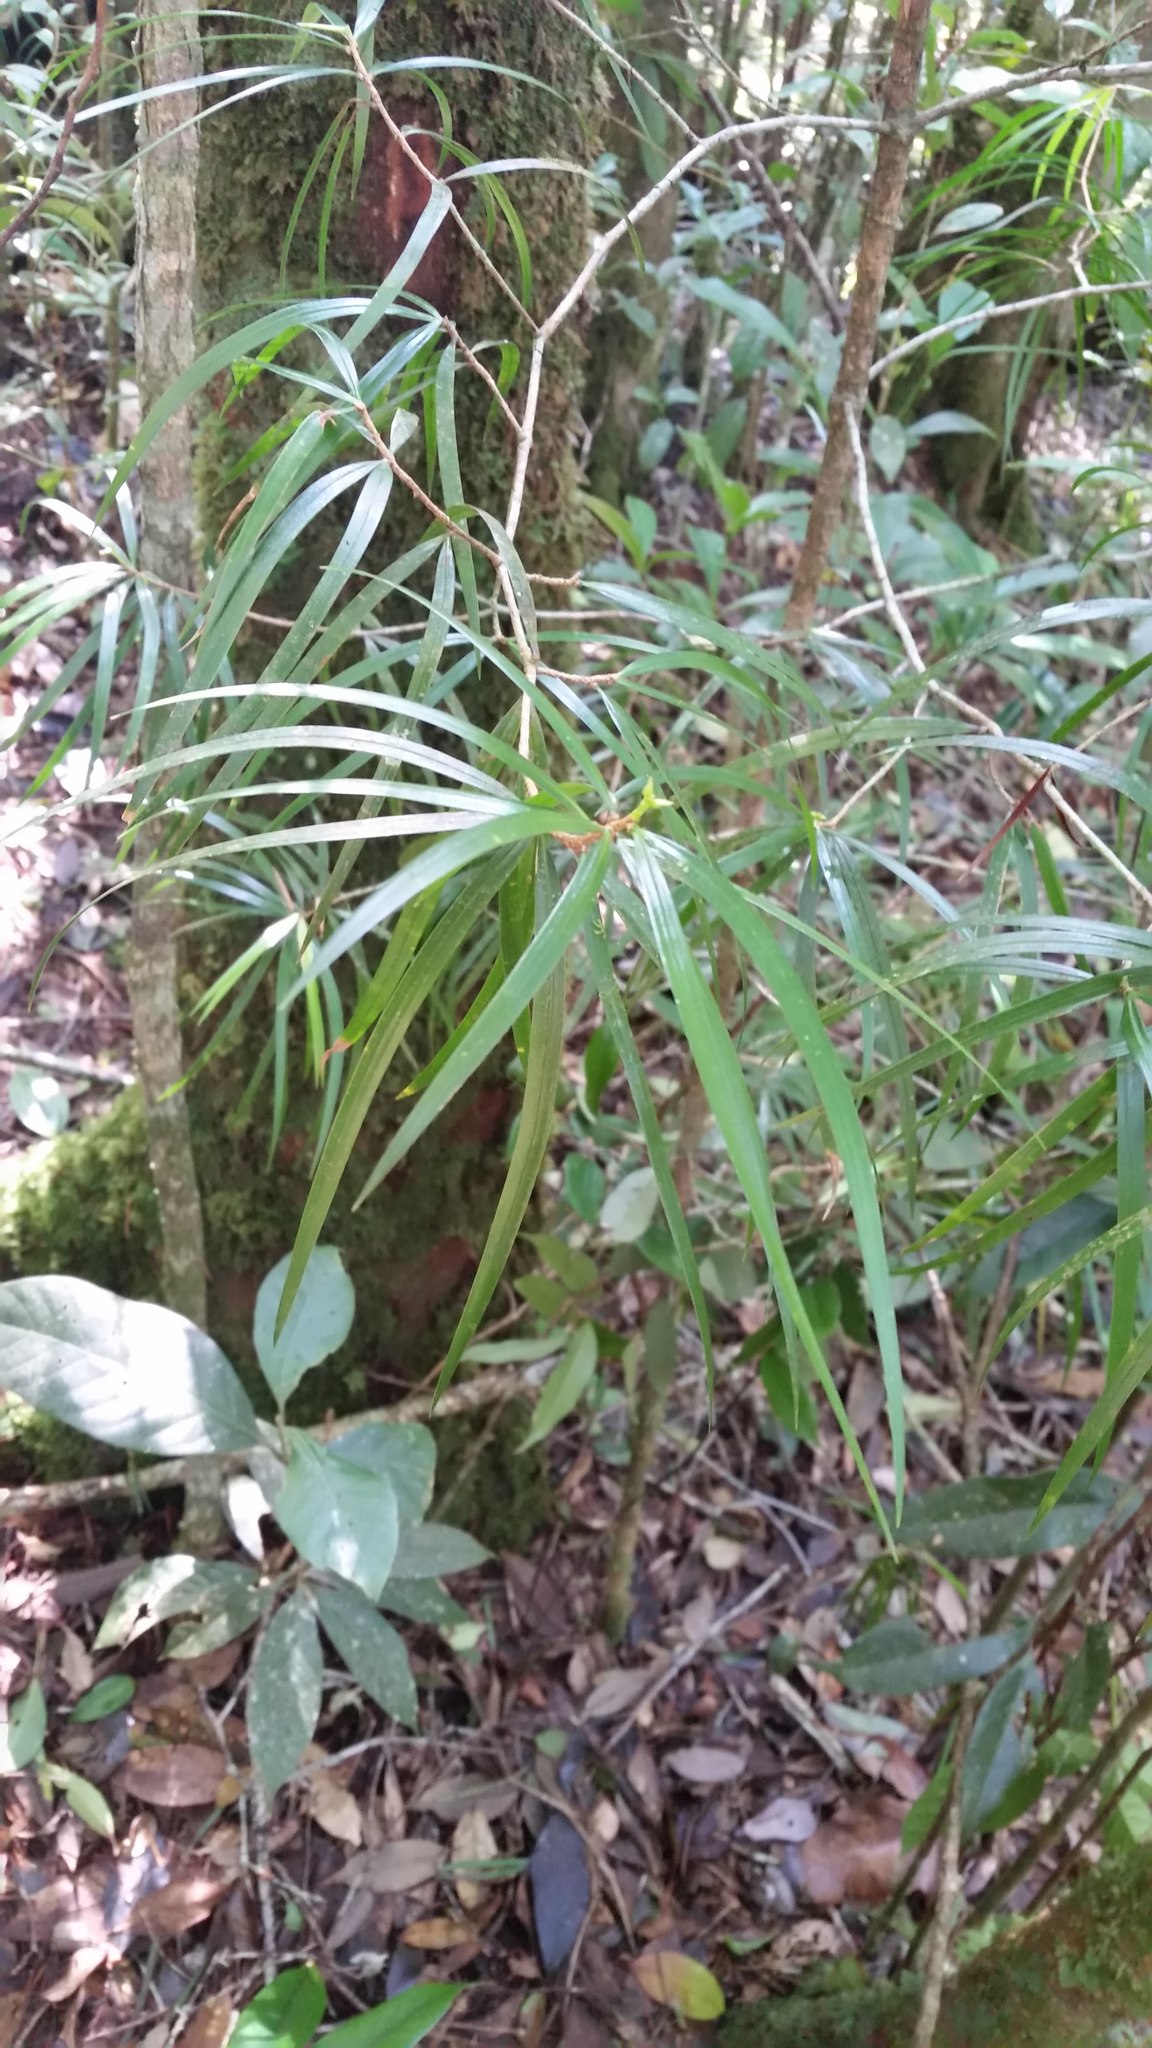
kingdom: Plantae
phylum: Tracheophyta
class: Pinopsida
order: Pinales
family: Pinaceae
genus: Pinus
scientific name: Pinus krempfii
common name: Krempf's pine
